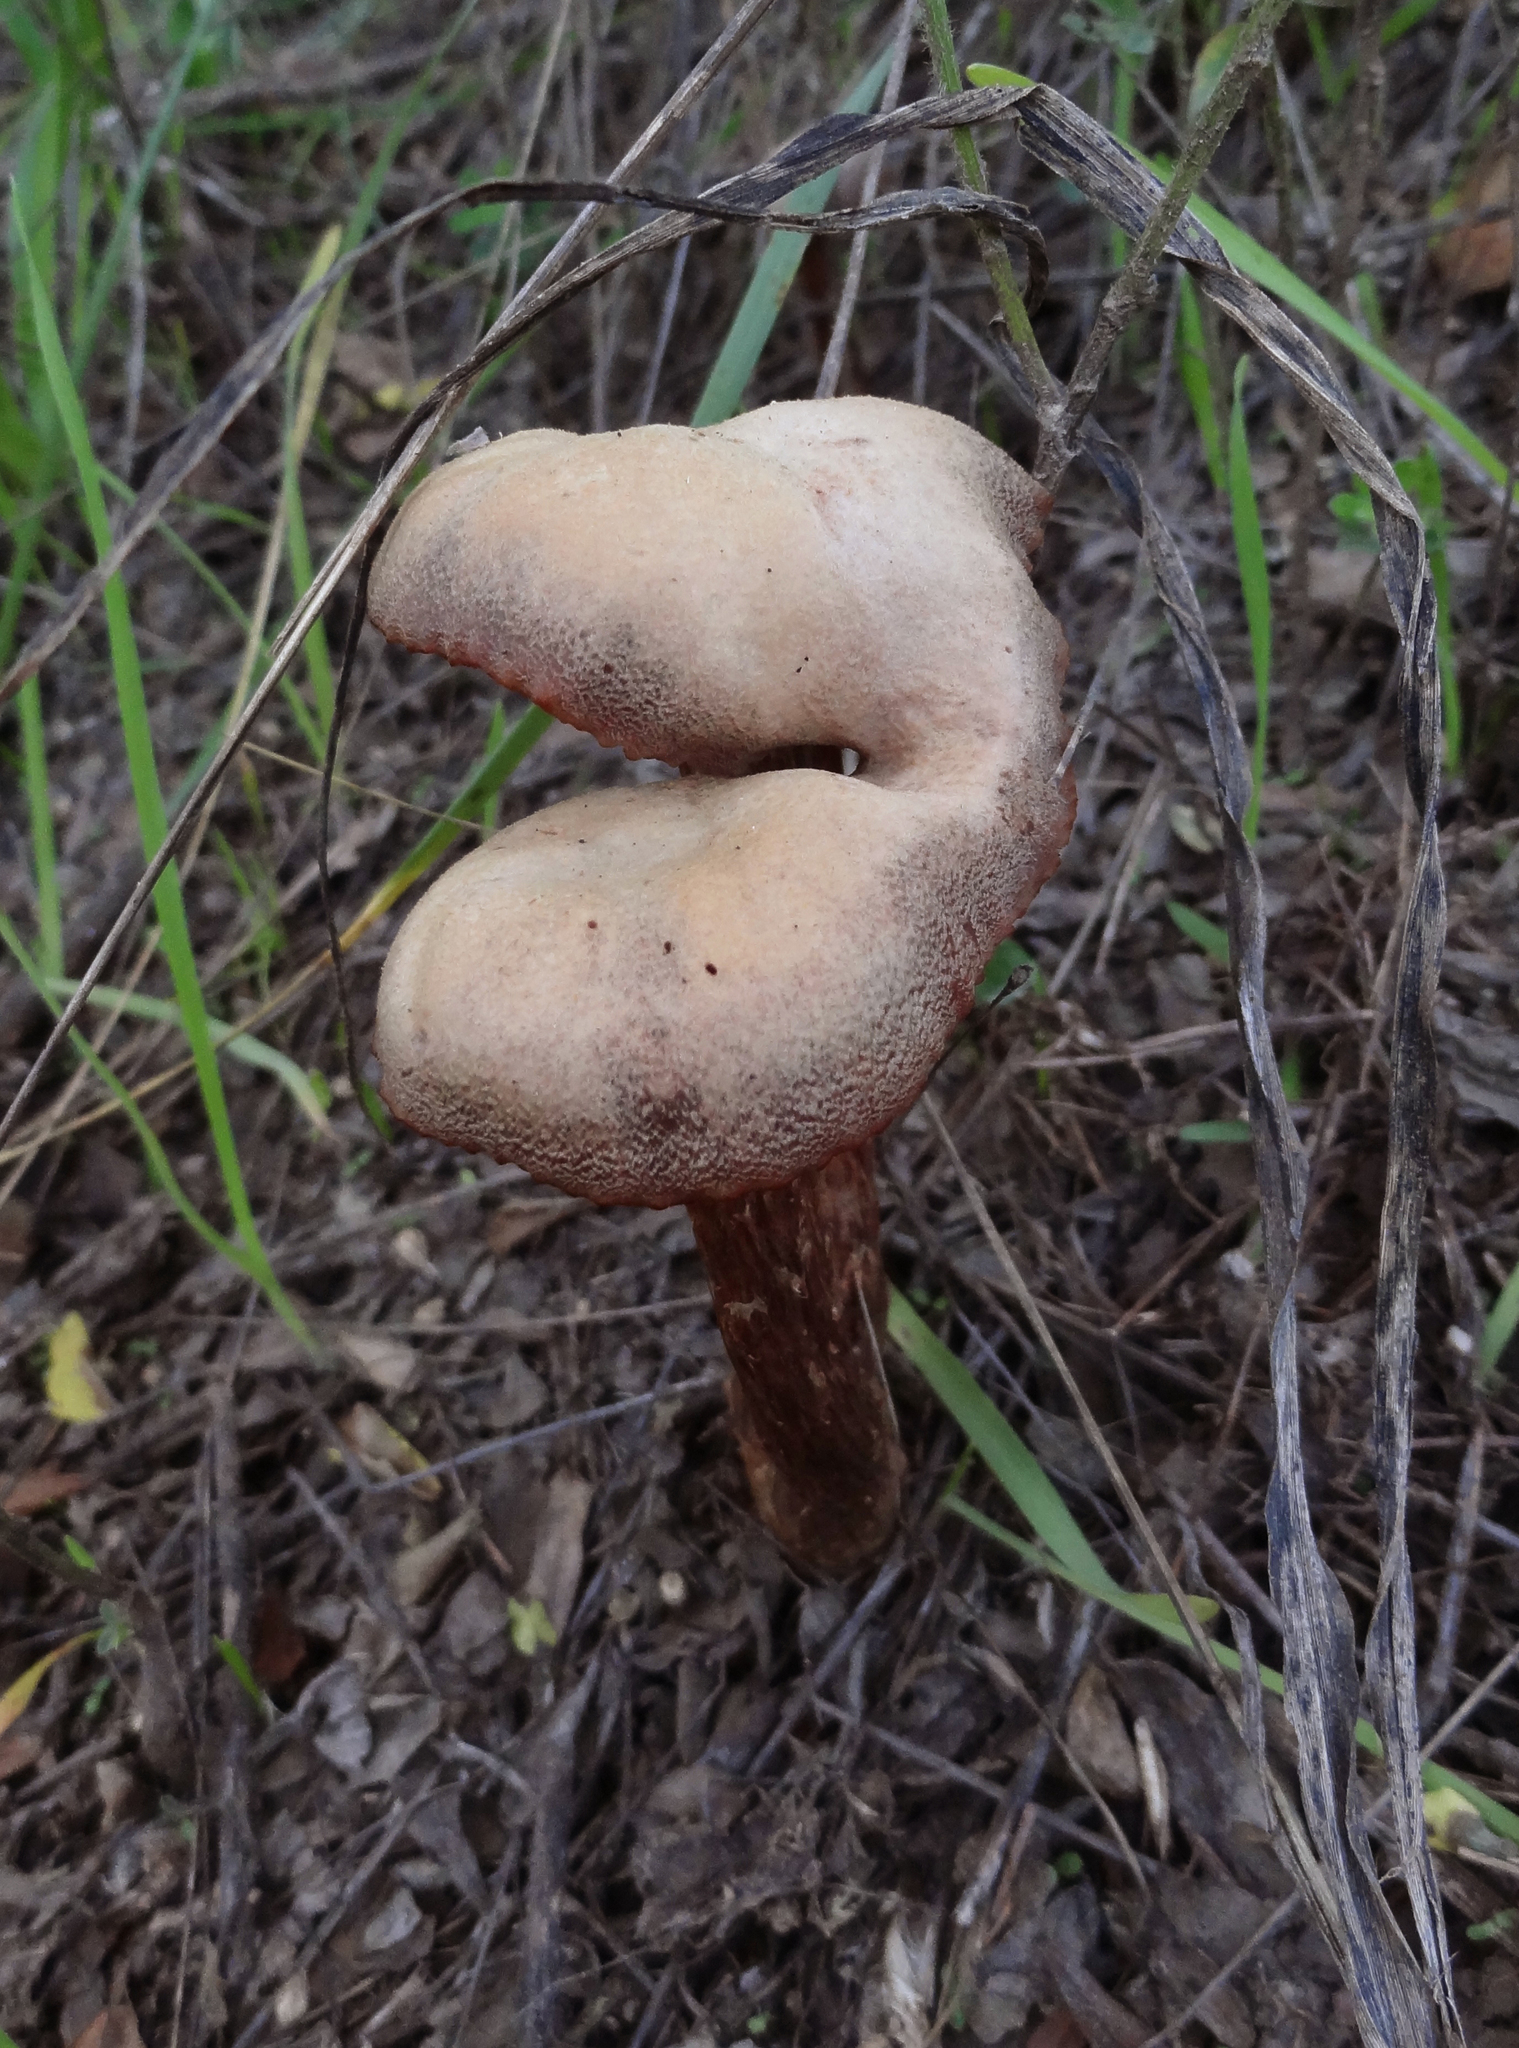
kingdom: Fungi
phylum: Basidiomycota
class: Agaricomycetes
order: Agaricales
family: Hydnangiaceae
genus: Laccaria
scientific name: Laccaria amethysteo-occidentalis
